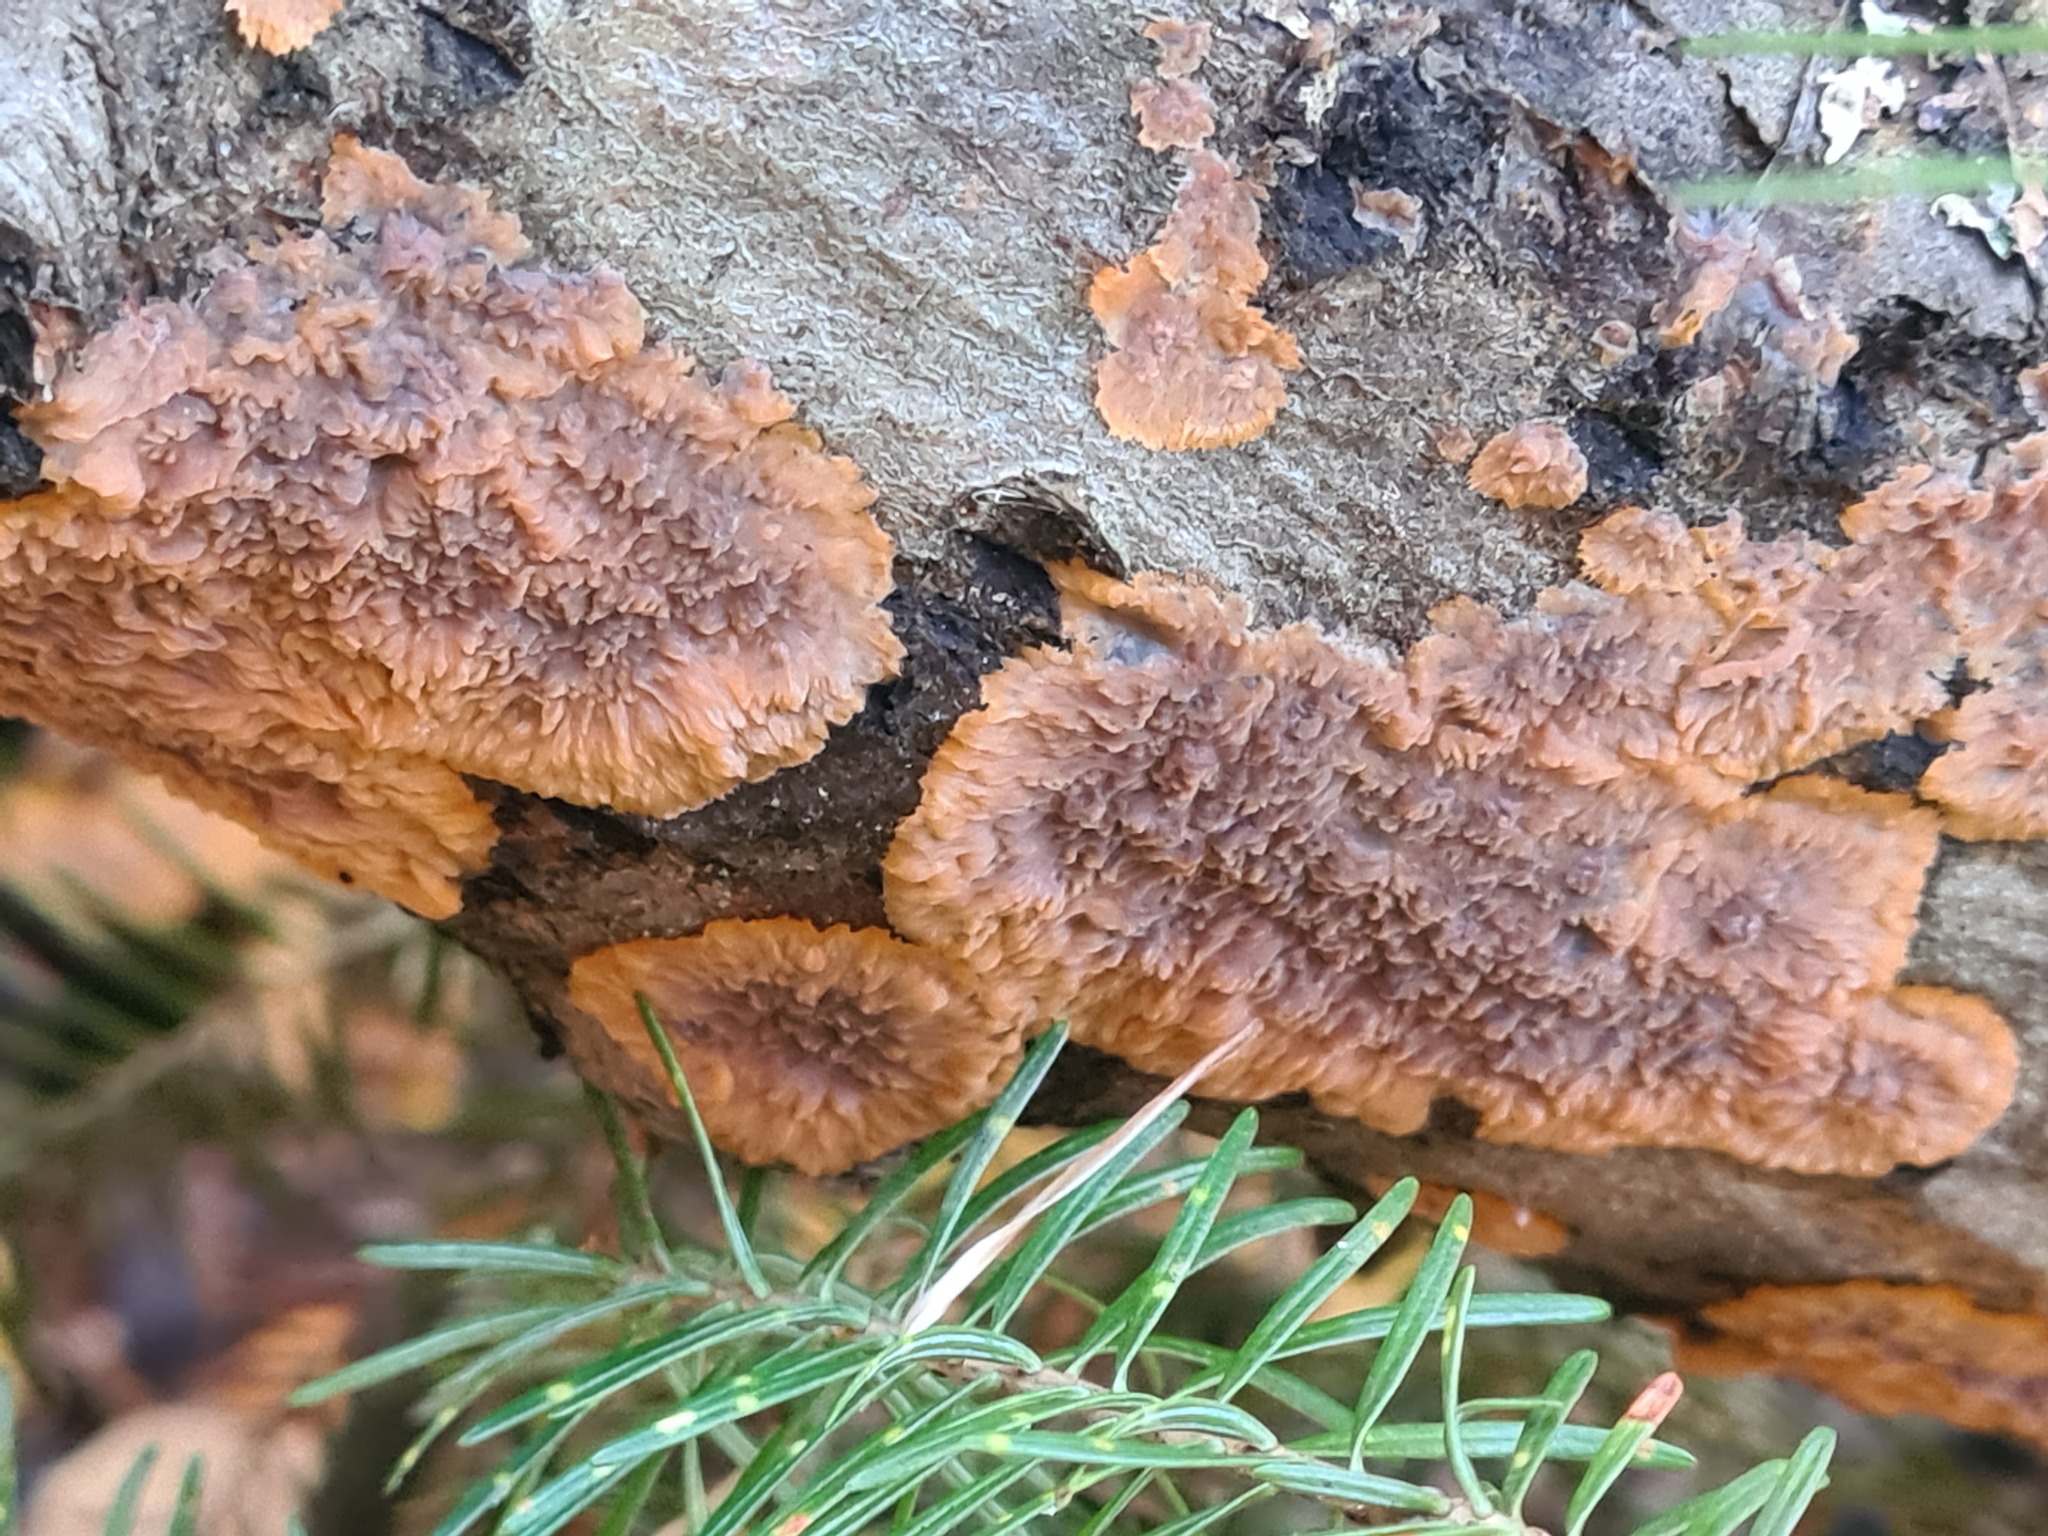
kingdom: Fungi
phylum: Basidiomycota
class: Agaricomycetes
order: Polyporales
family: Meruliaceae
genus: Phlebia
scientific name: Phlebia radiata
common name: Wrinkled crust
